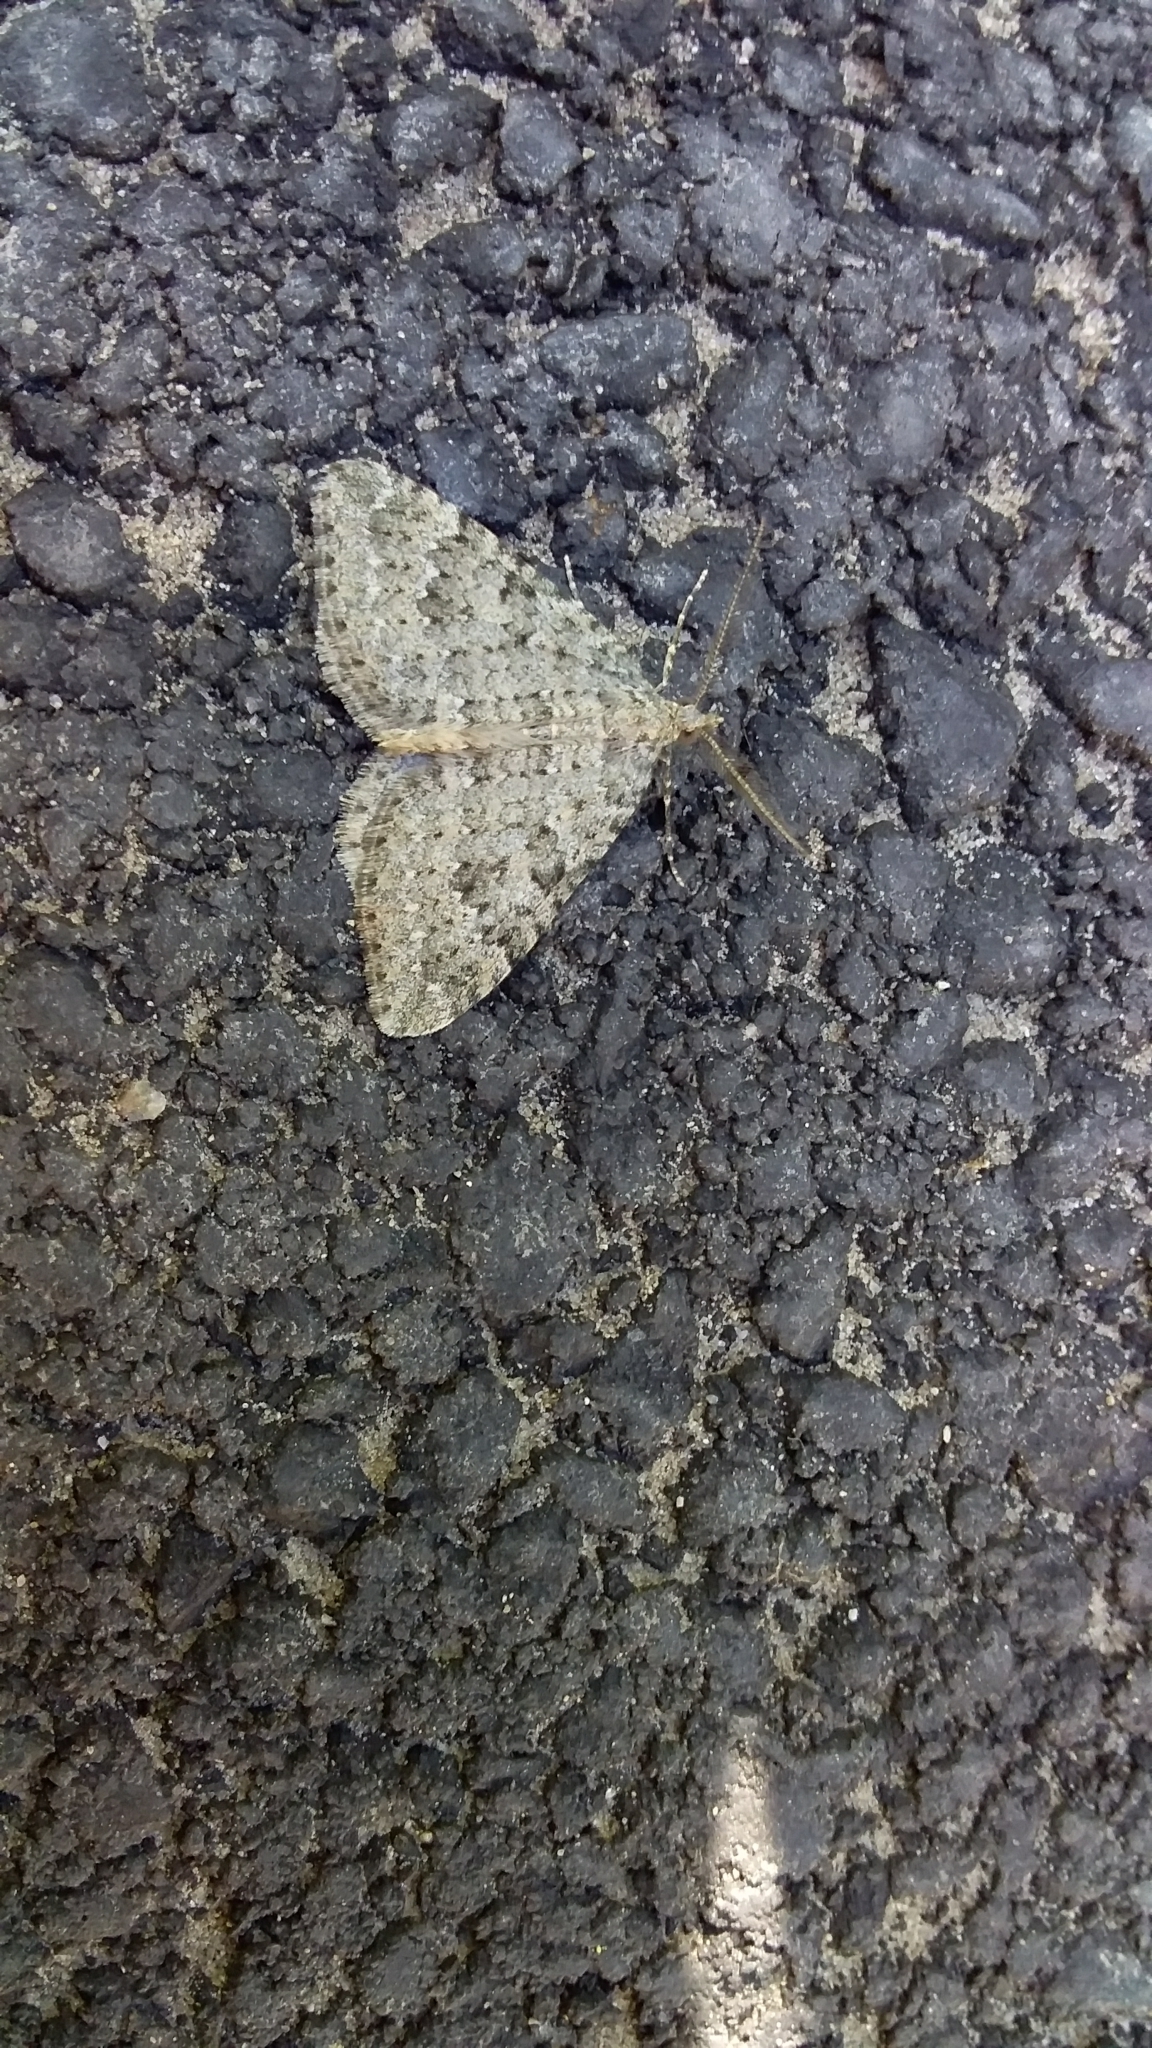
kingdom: Animalia
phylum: Arthropoda
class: Insecta
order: Lepidoptera
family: Geometridae
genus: Helastia
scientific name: Helastia corcularia
